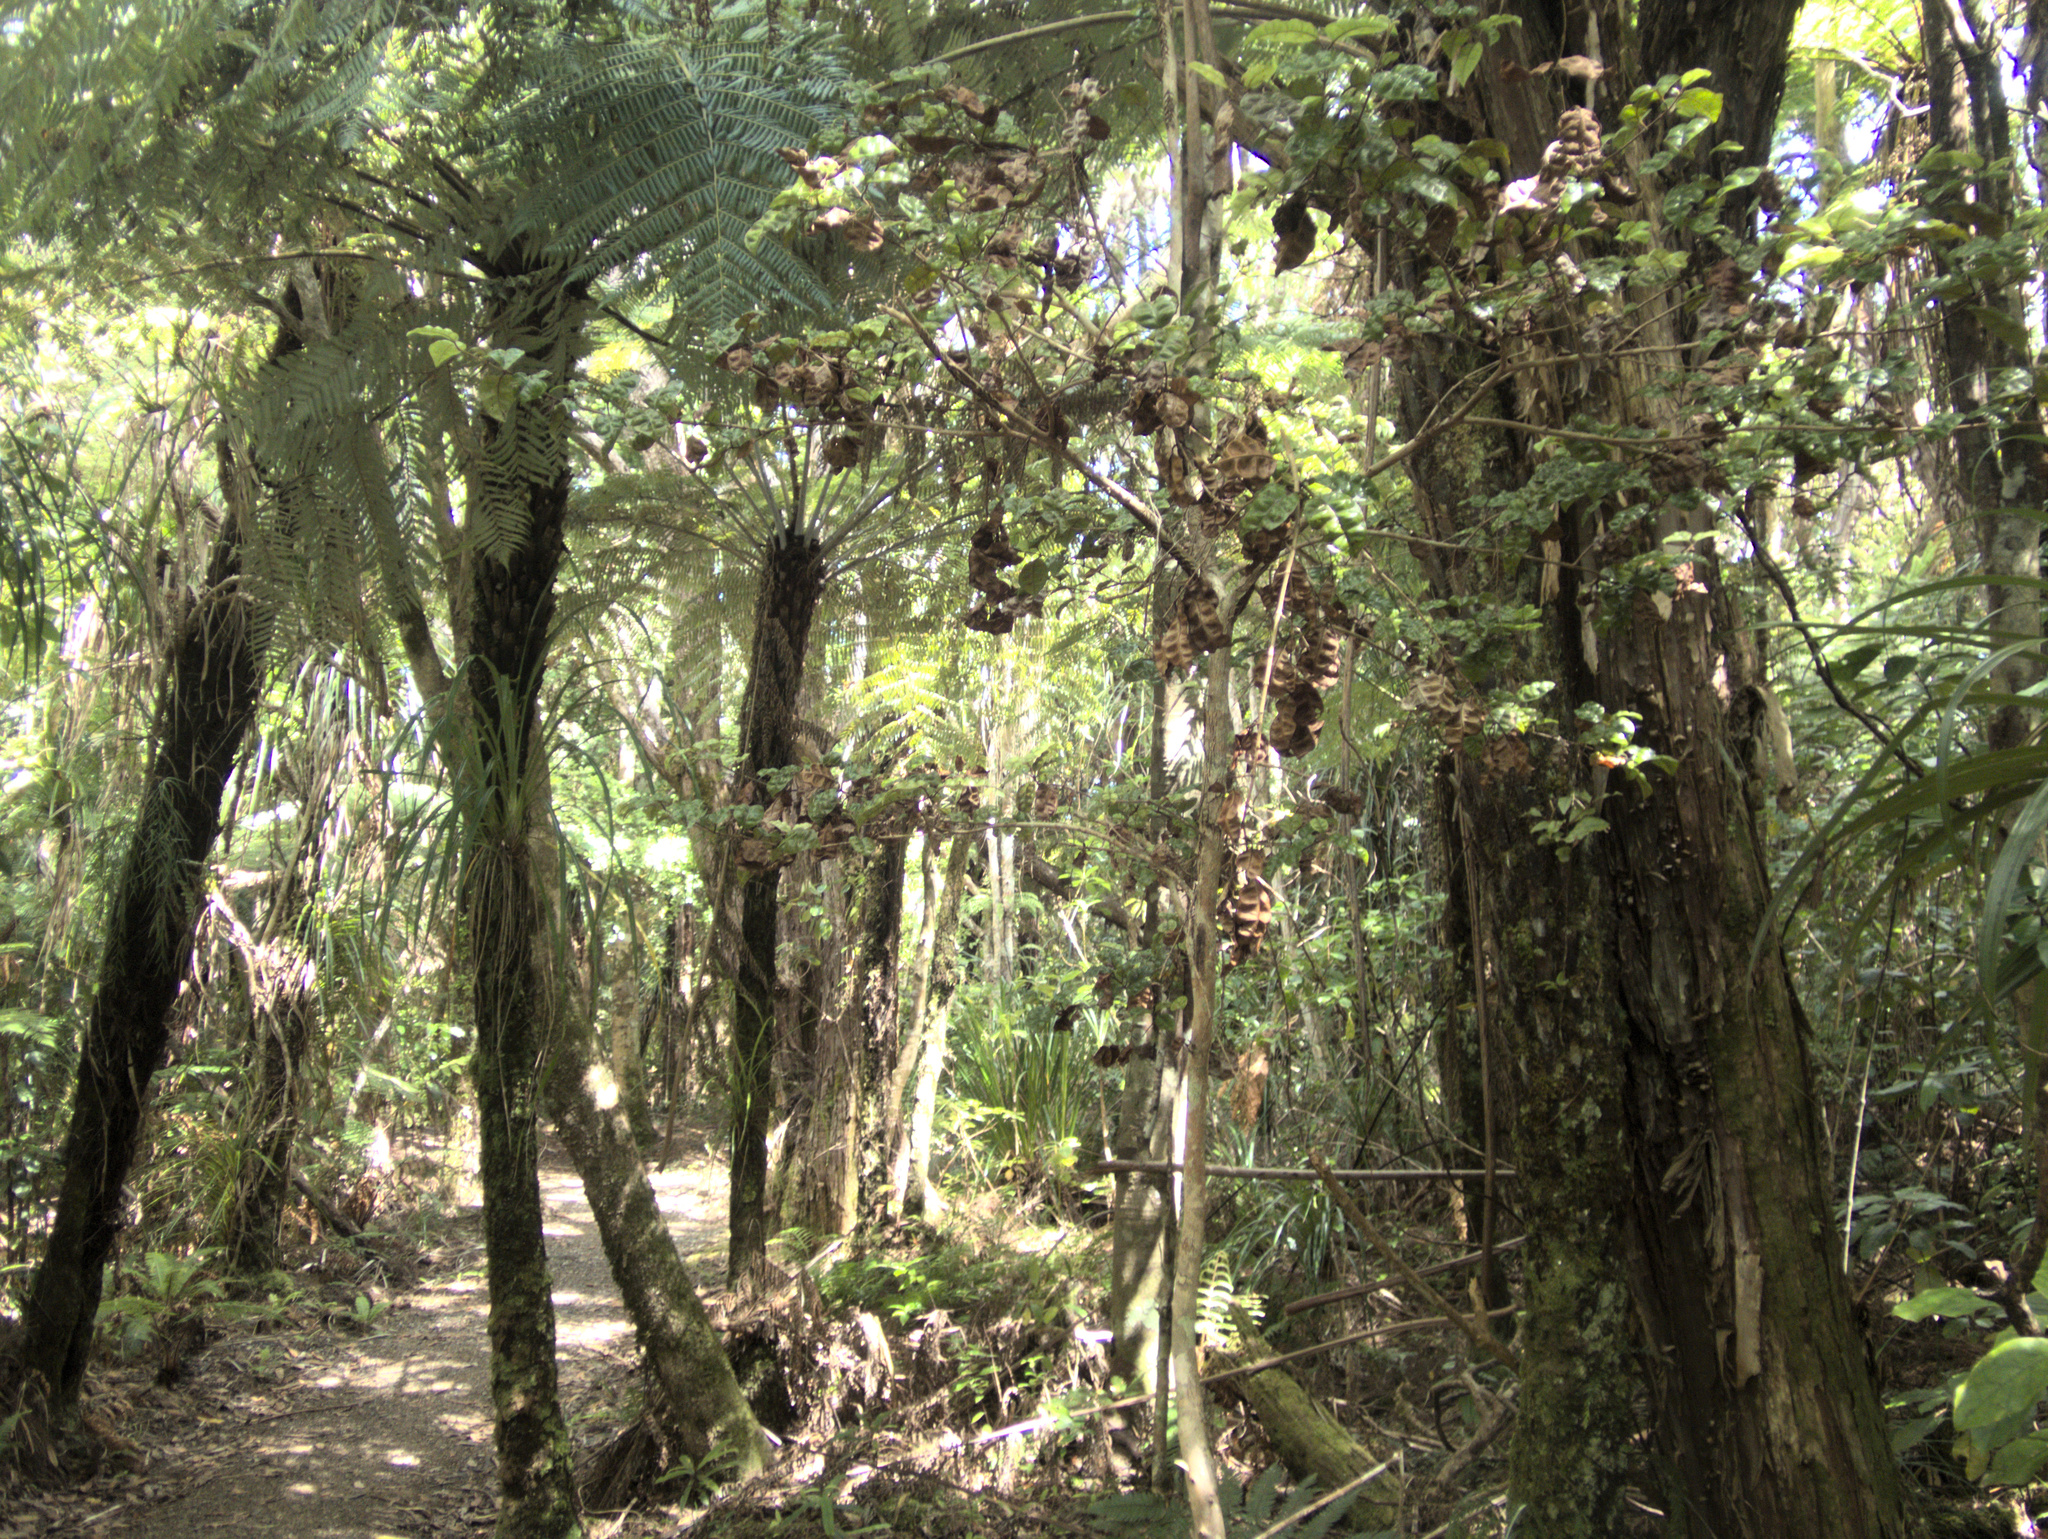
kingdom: Plantae
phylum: Tracheophyta
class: Magnoliopsida
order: Myrtales
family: Myrtaceae
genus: Lophomyrtus
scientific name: Lophomyrtus bullata
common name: Rama rama
